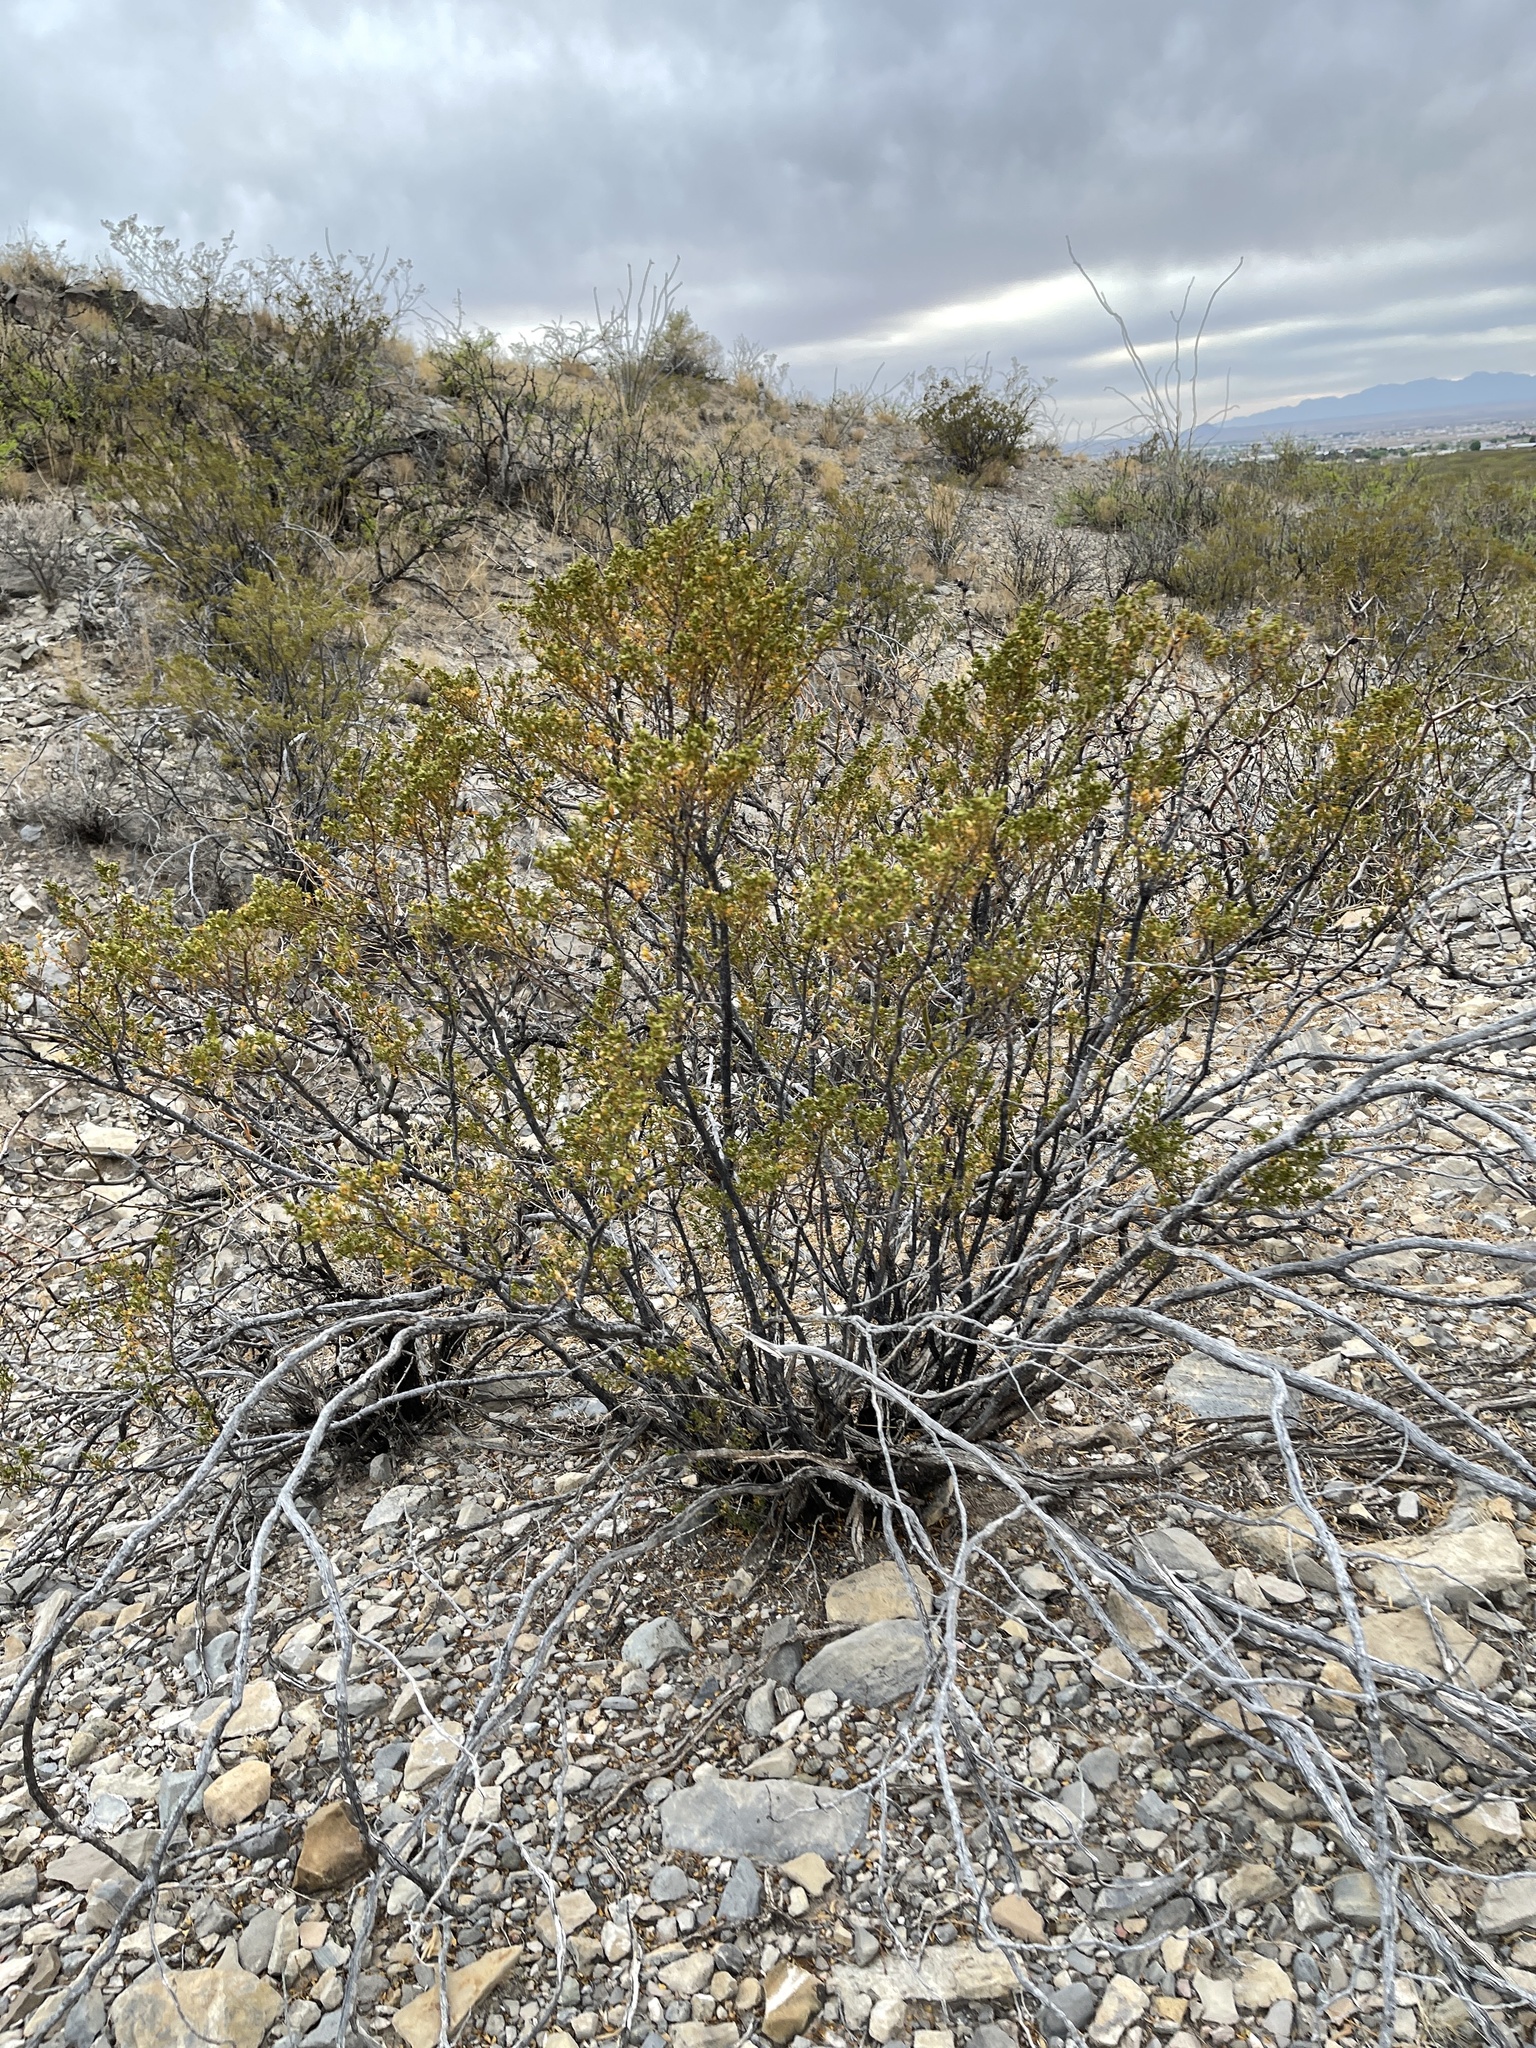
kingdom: Plantae
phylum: Tracheophyta
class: Magnoliopsida
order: Zygophyllales
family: Zygophyllaceae
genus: Larrea
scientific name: Larrea tridentata
